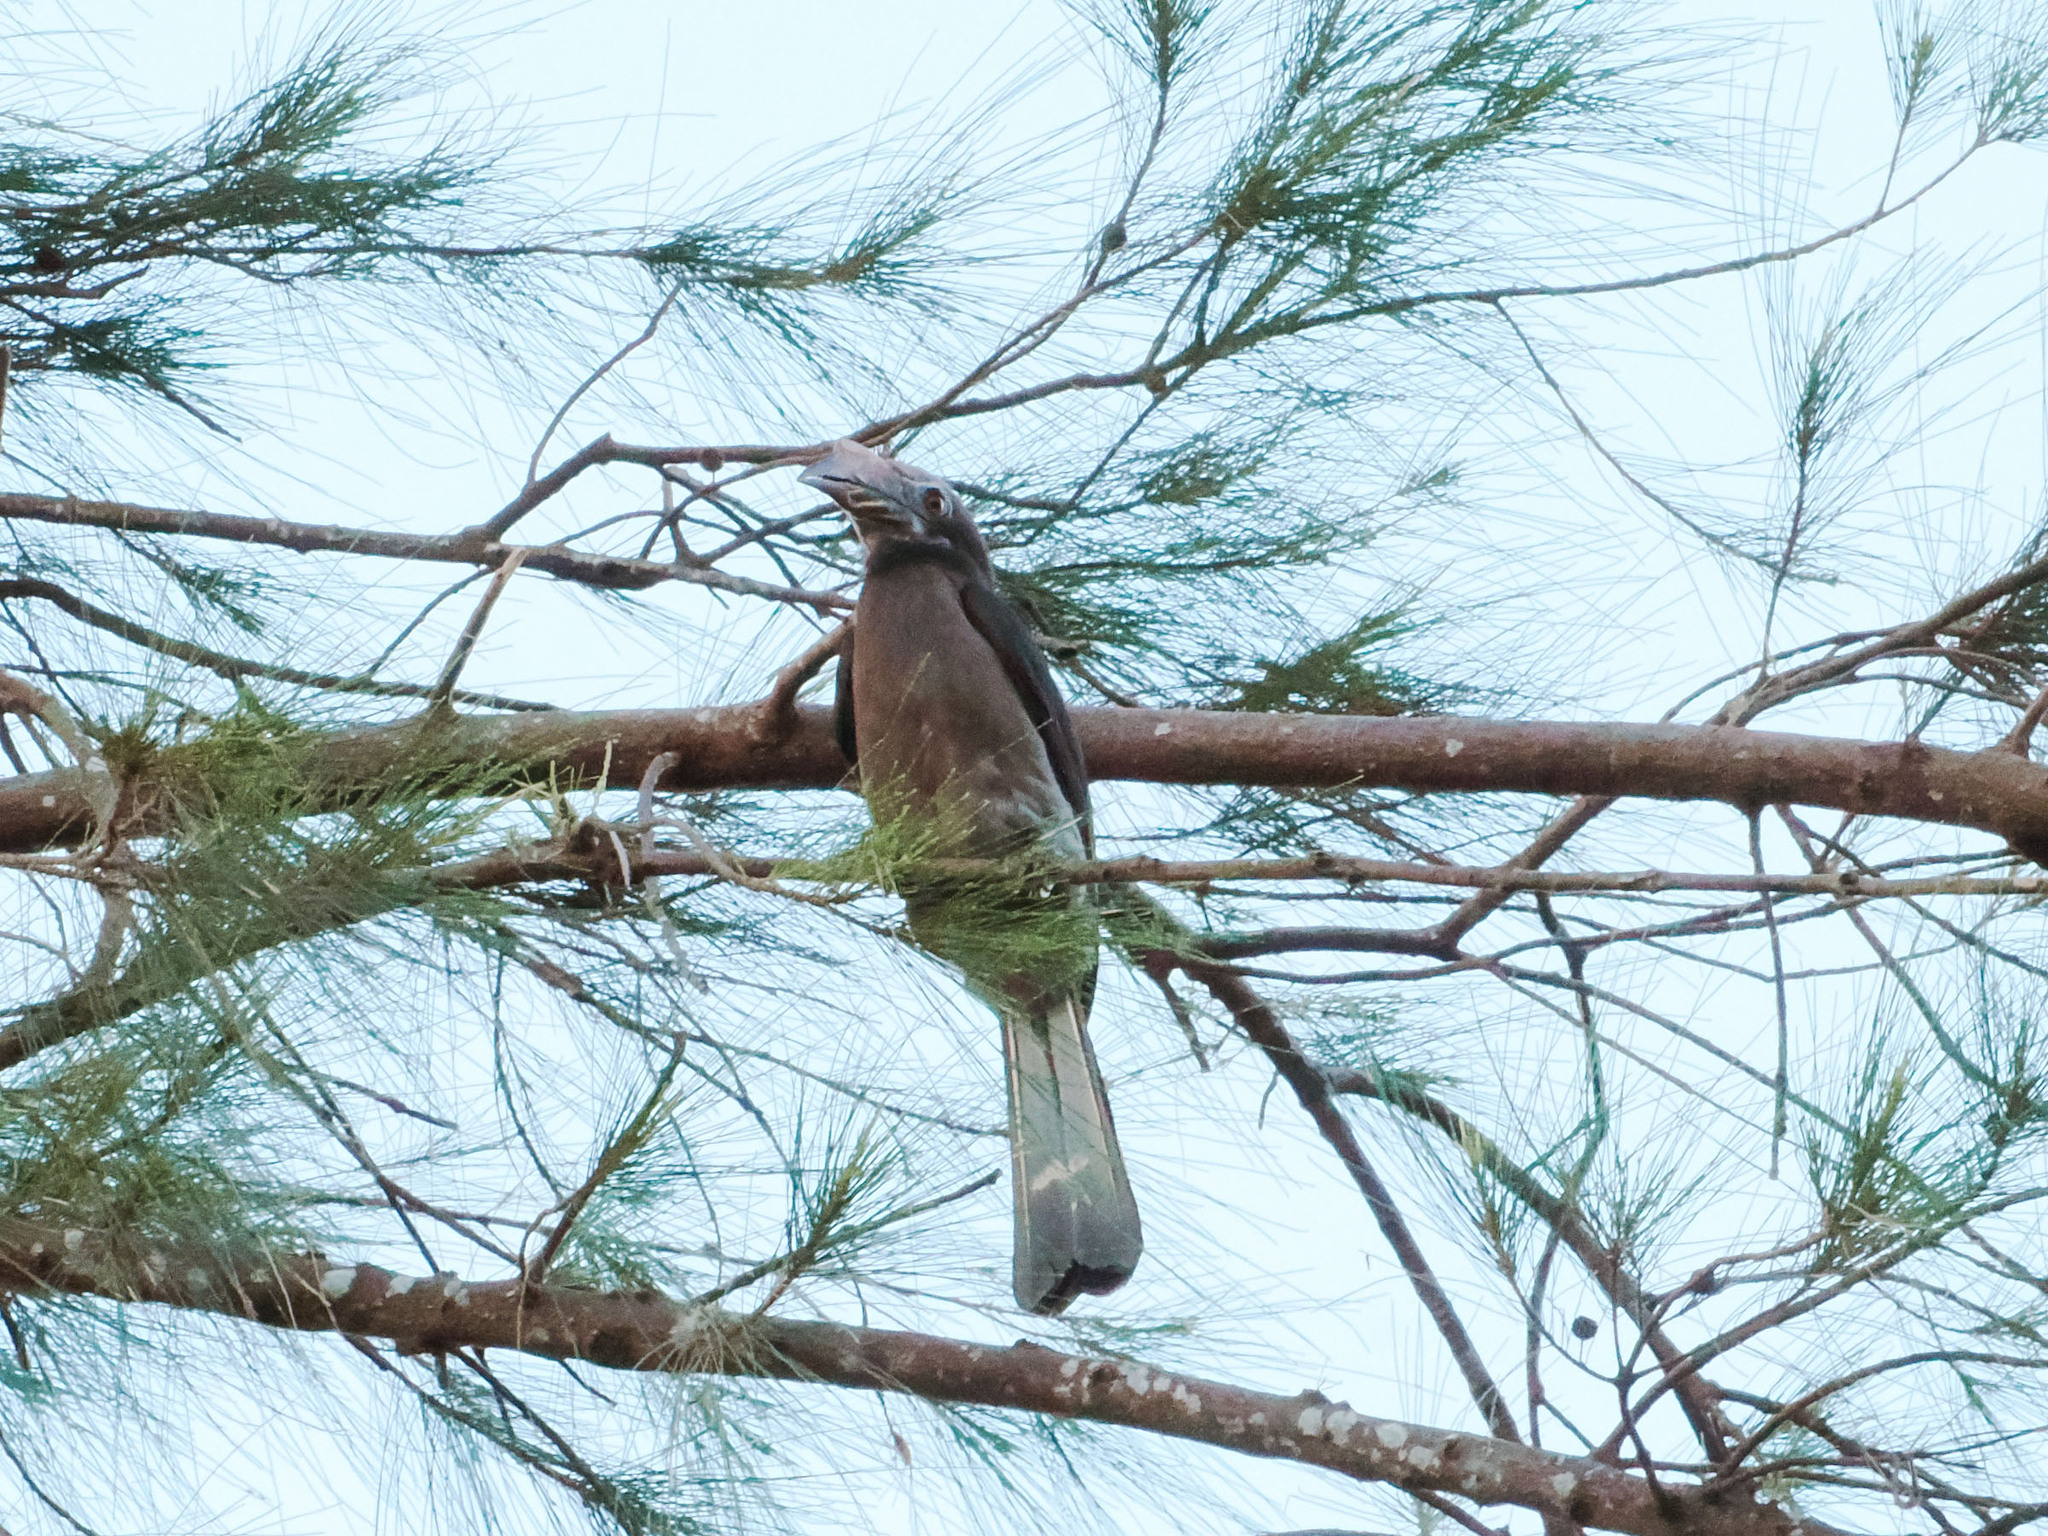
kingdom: Animalia
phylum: Chordata
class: Aves
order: Bucerotiformes
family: Bucerotidae
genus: Penelopides
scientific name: Penelopides mindorensis
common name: Mindoro hornbill
